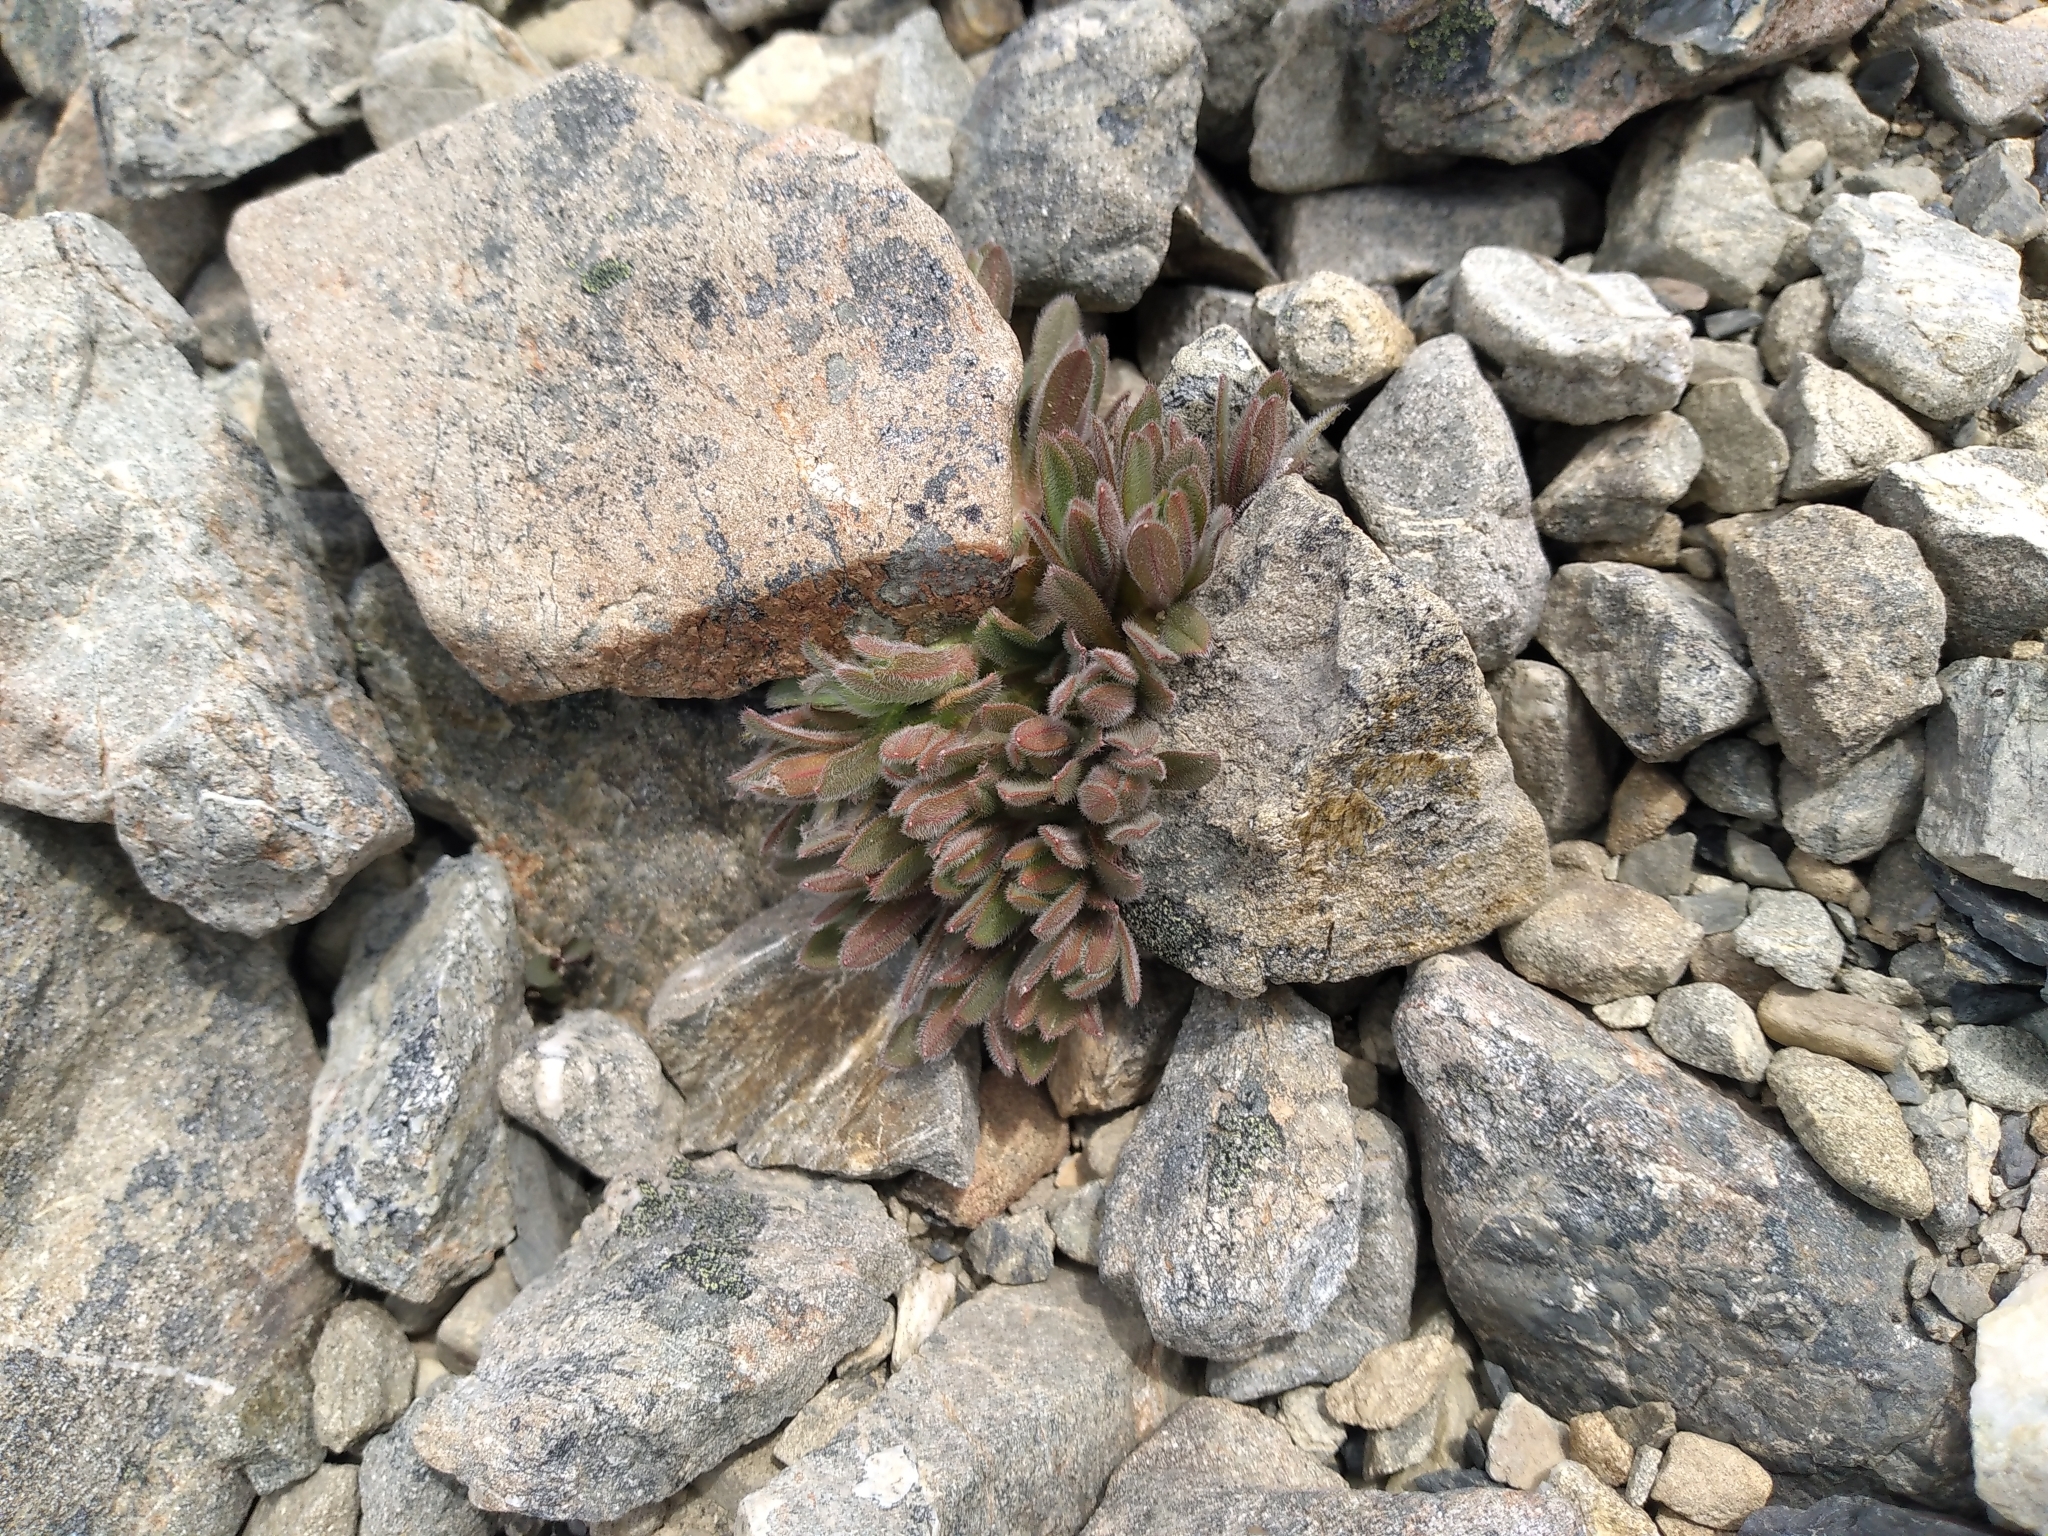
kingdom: Plantae
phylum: Tracheophyta
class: Magnoliopsida
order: Boraginales
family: Boraginaceae
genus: Myosotis
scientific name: Myosotis traversii
